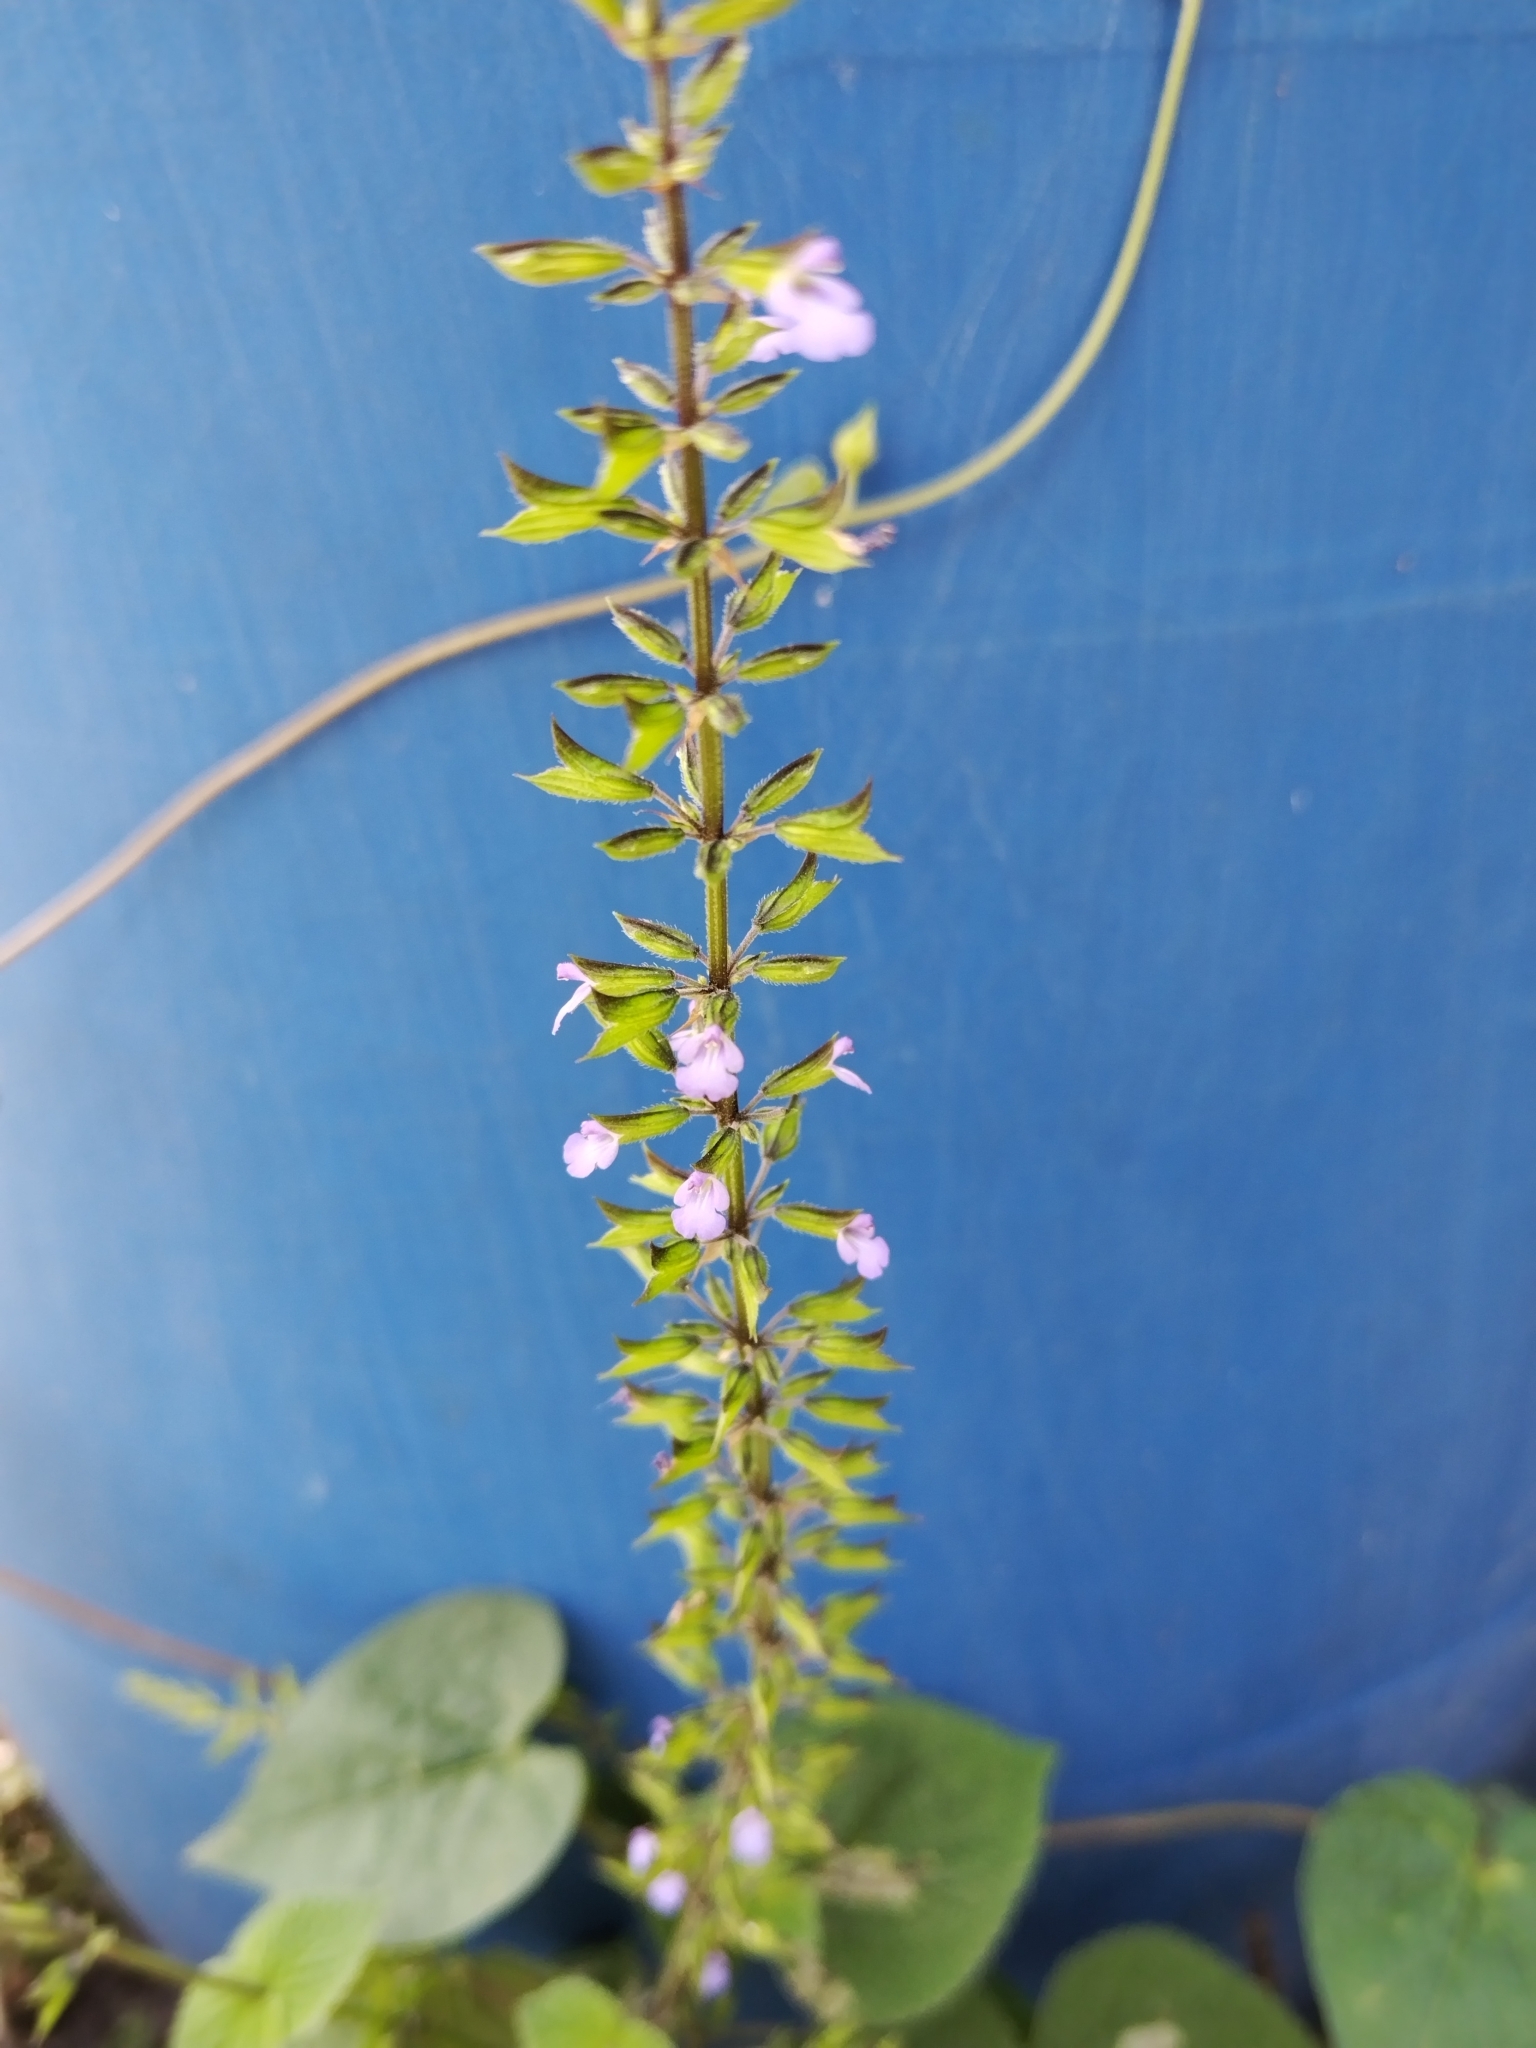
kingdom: Plantae
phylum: Tracheophyta
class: Magnoliopsida
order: Lamiales
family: Lamiaceae
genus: Salvia
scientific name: Salvia tiliifolia
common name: Lindenleaf sage
